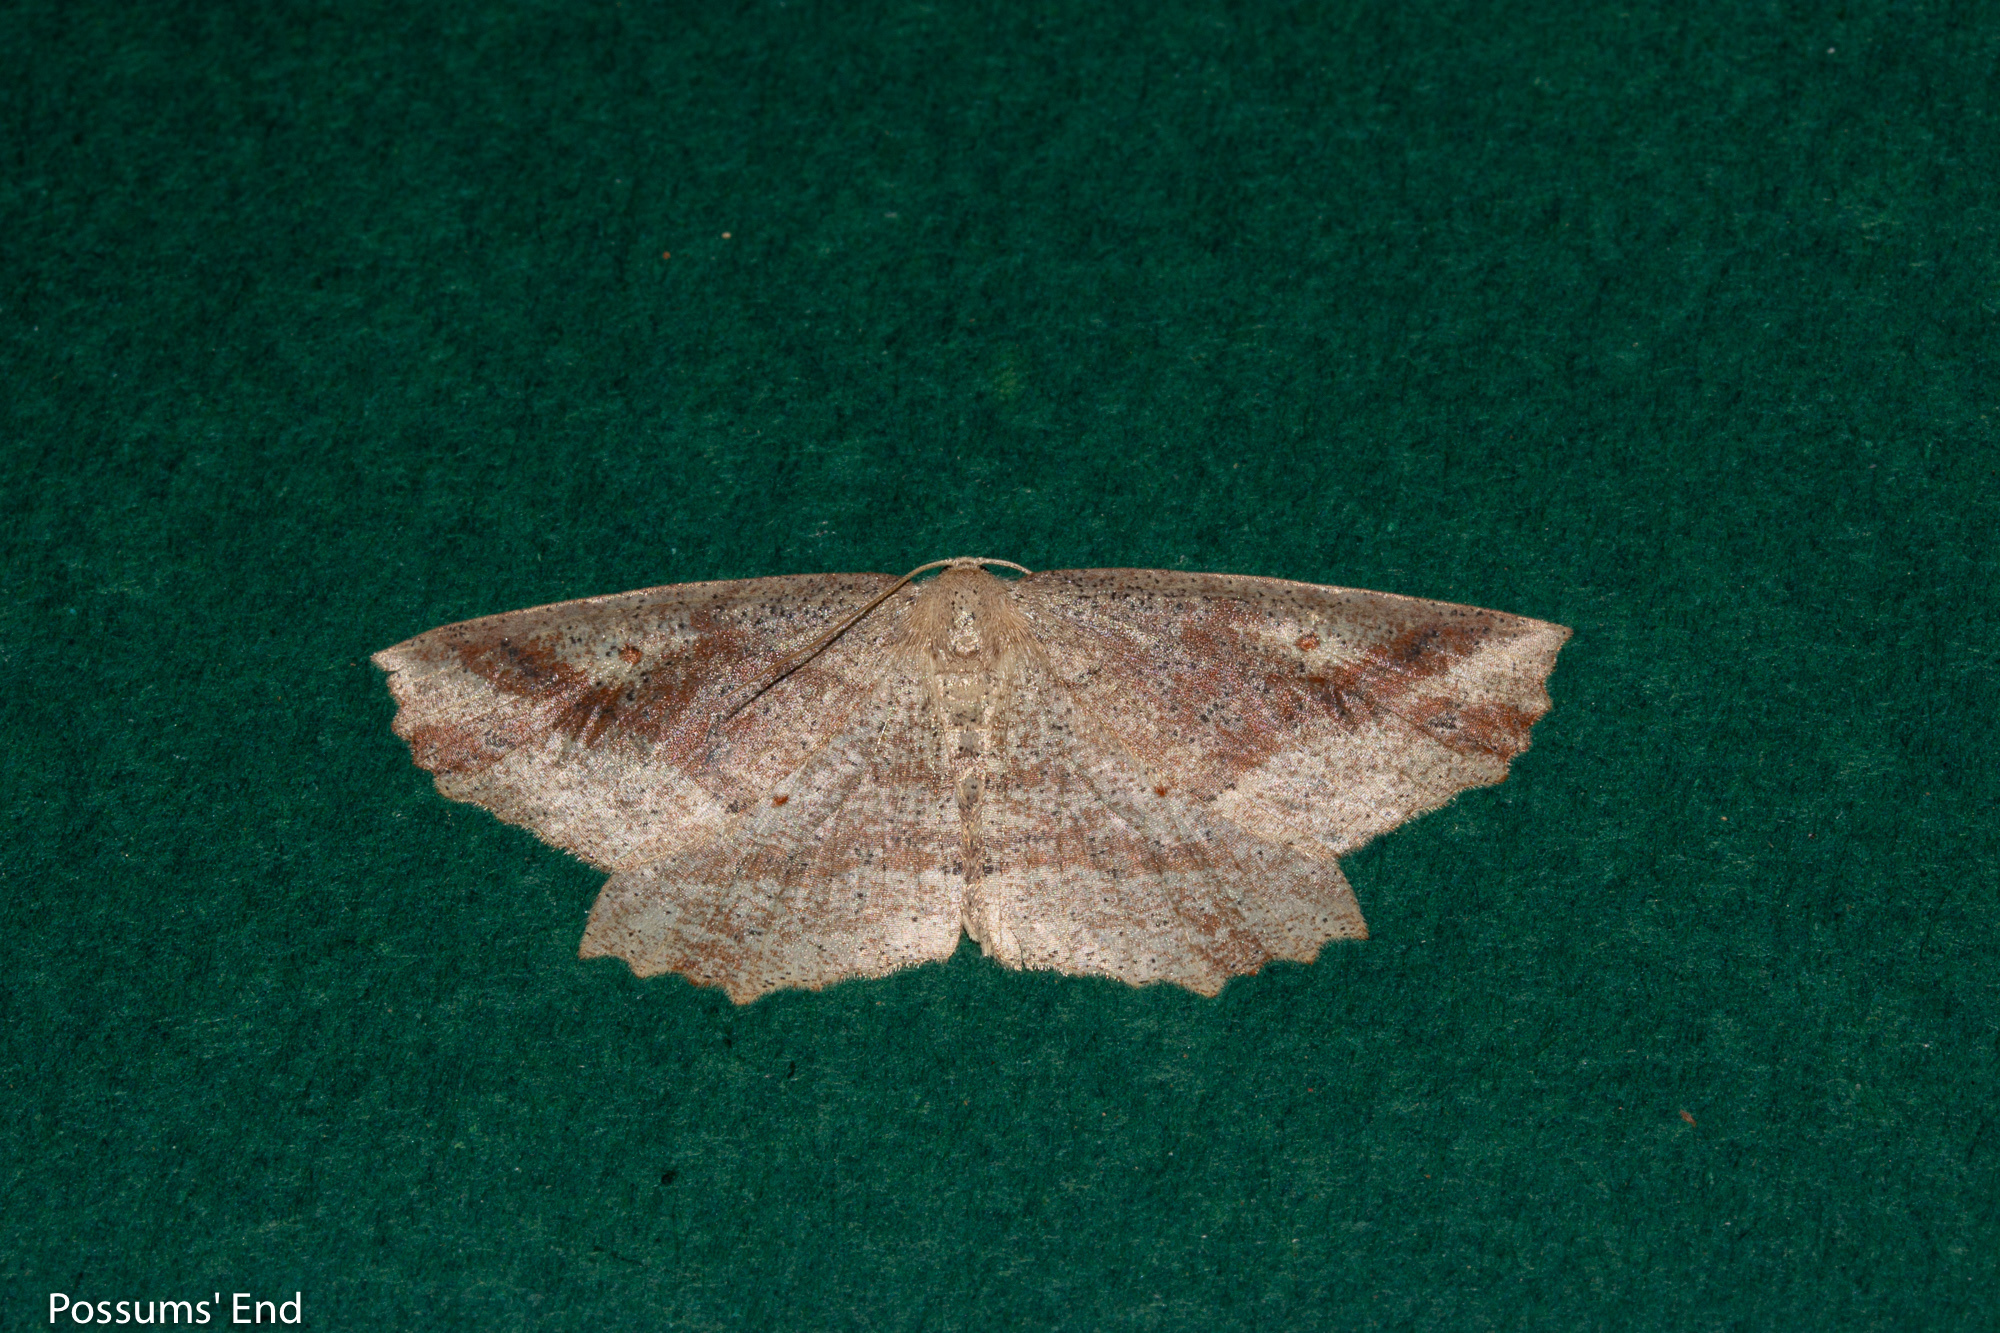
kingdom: Animalia
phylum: Arthropoda
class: Insecta
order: Lepidoptera
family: Geometridae
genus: Xyridacma
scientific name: Xyridacma veronicae
